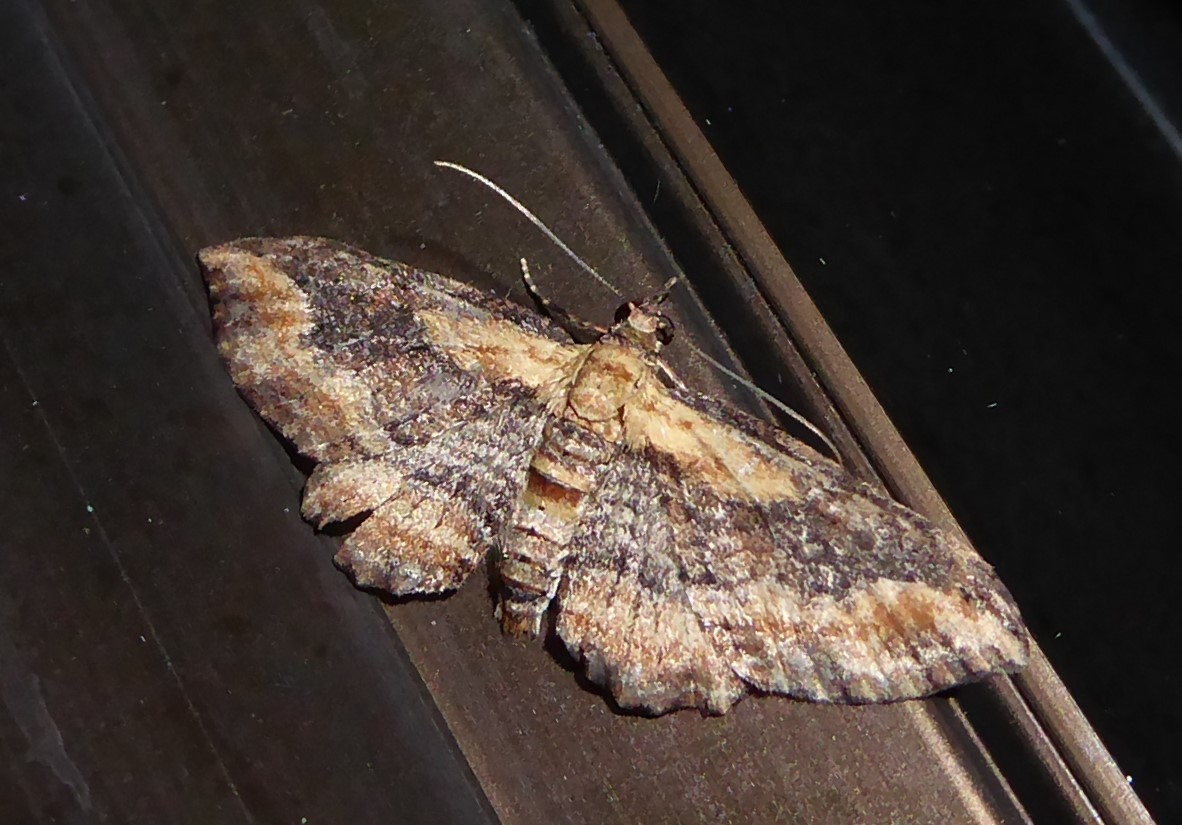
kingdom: Animalia
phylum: Arthropoda
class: Insecta
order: Lepidoptera
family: Geometridae
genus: Chloroclystis
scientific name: Chloroclystis filata
